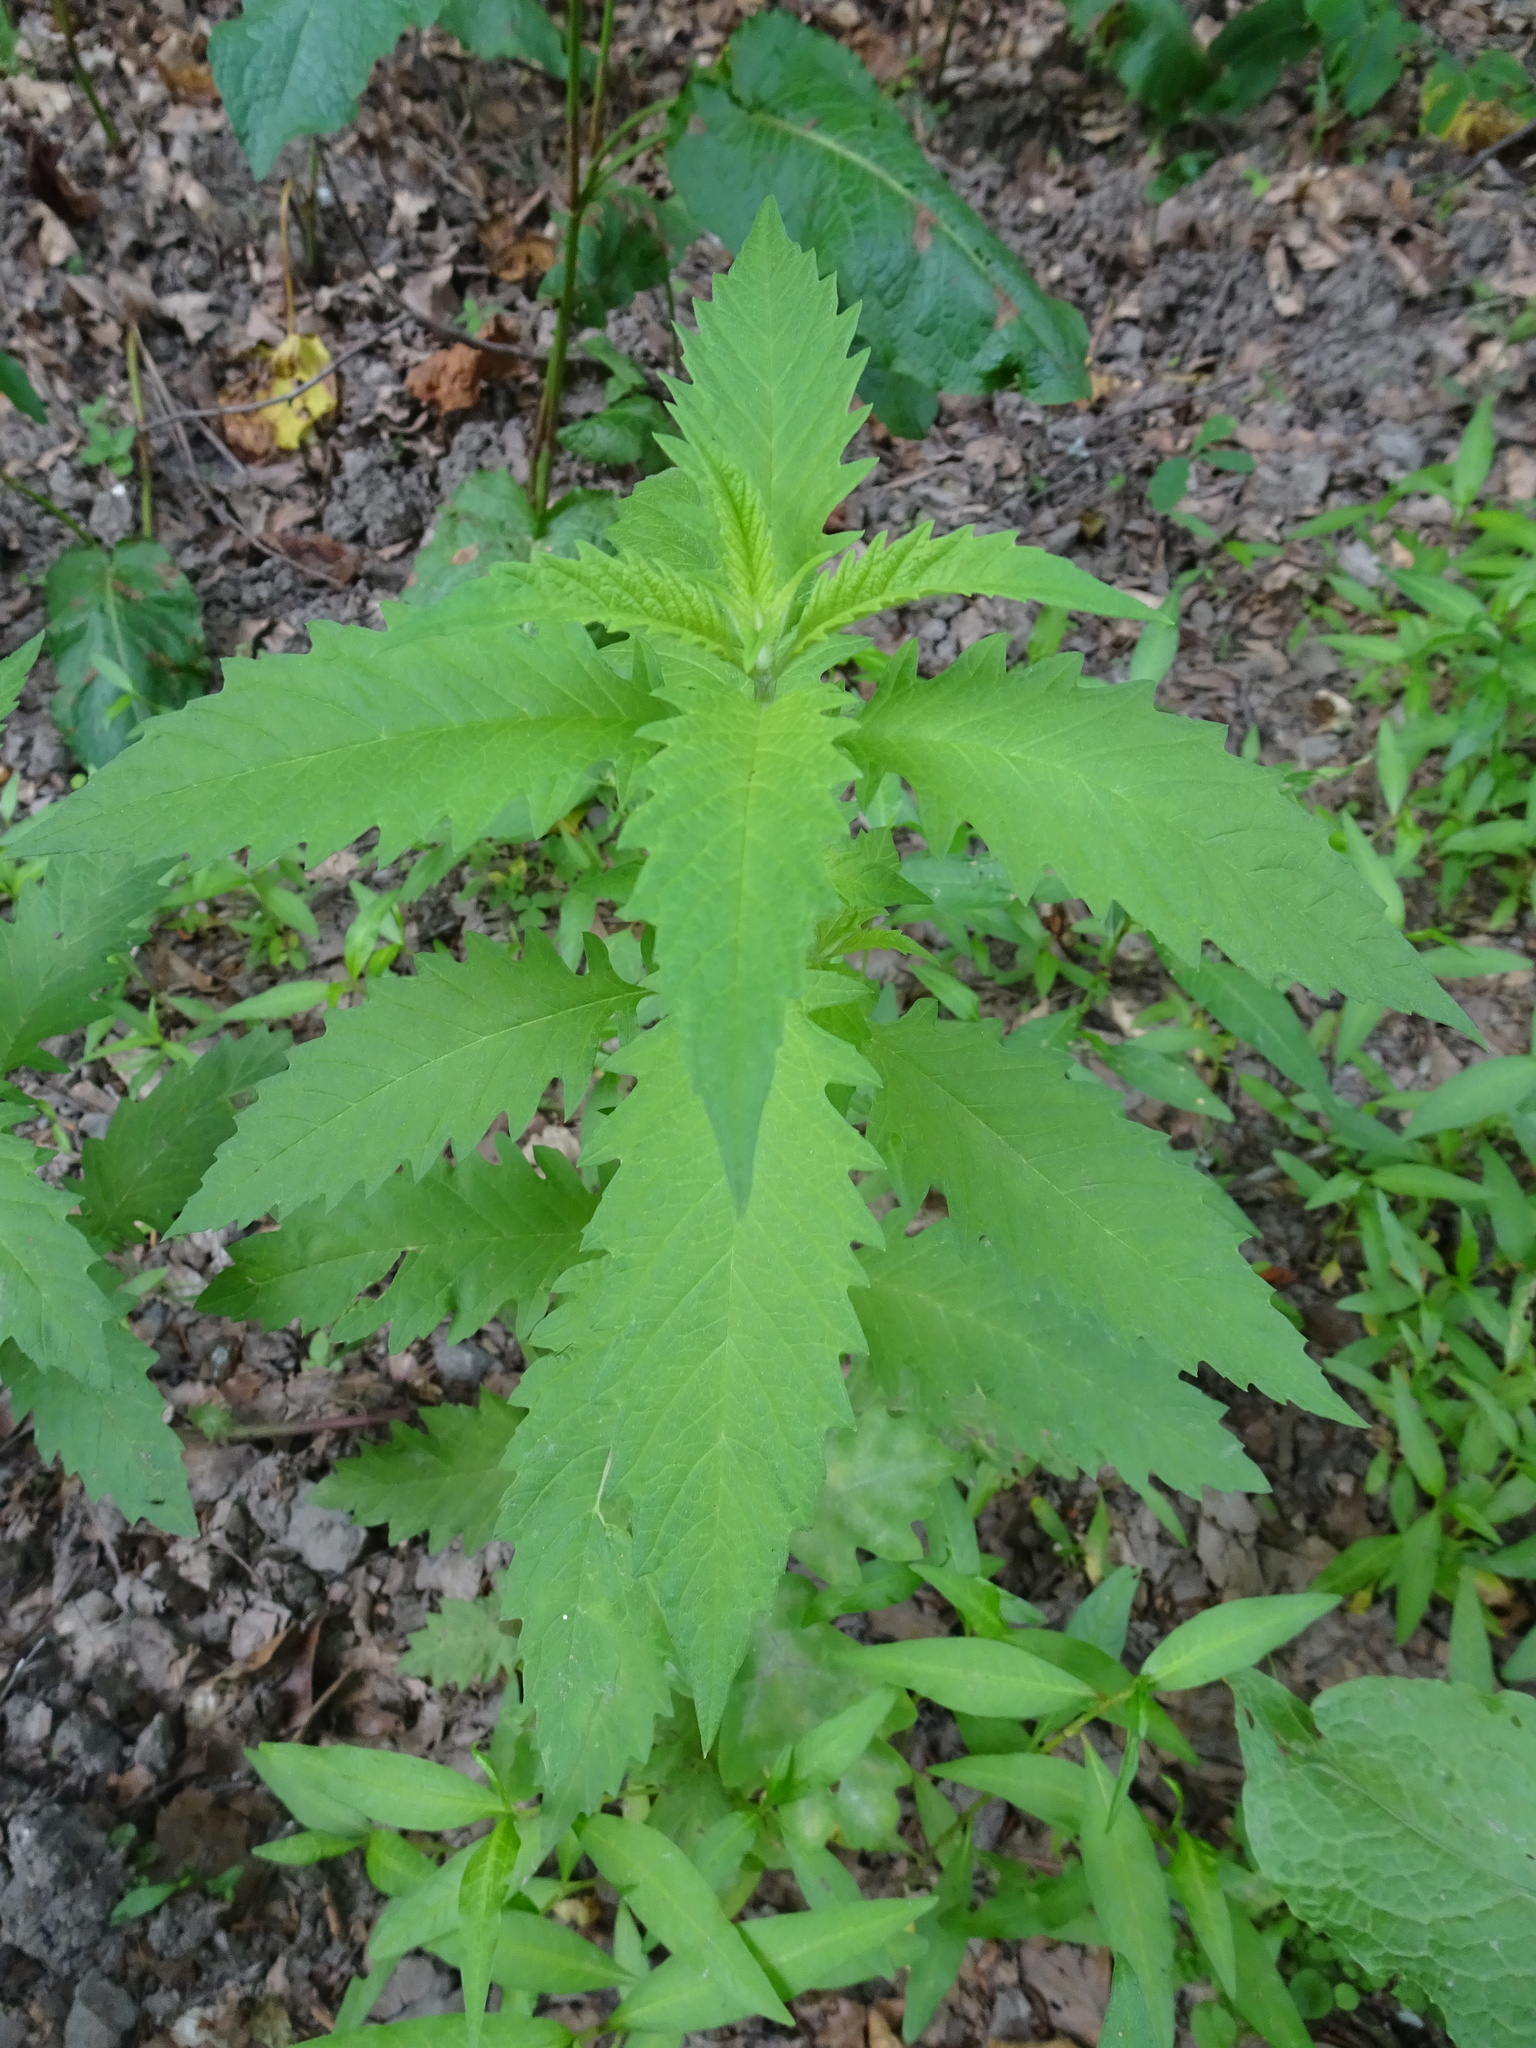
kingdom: Plantae
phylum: Tracheophyta
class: Magnoliopsida
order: Lamiales
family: Lamiaceae
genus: Lycopus
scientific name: Lycopus europaeus
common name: European bugleweed
